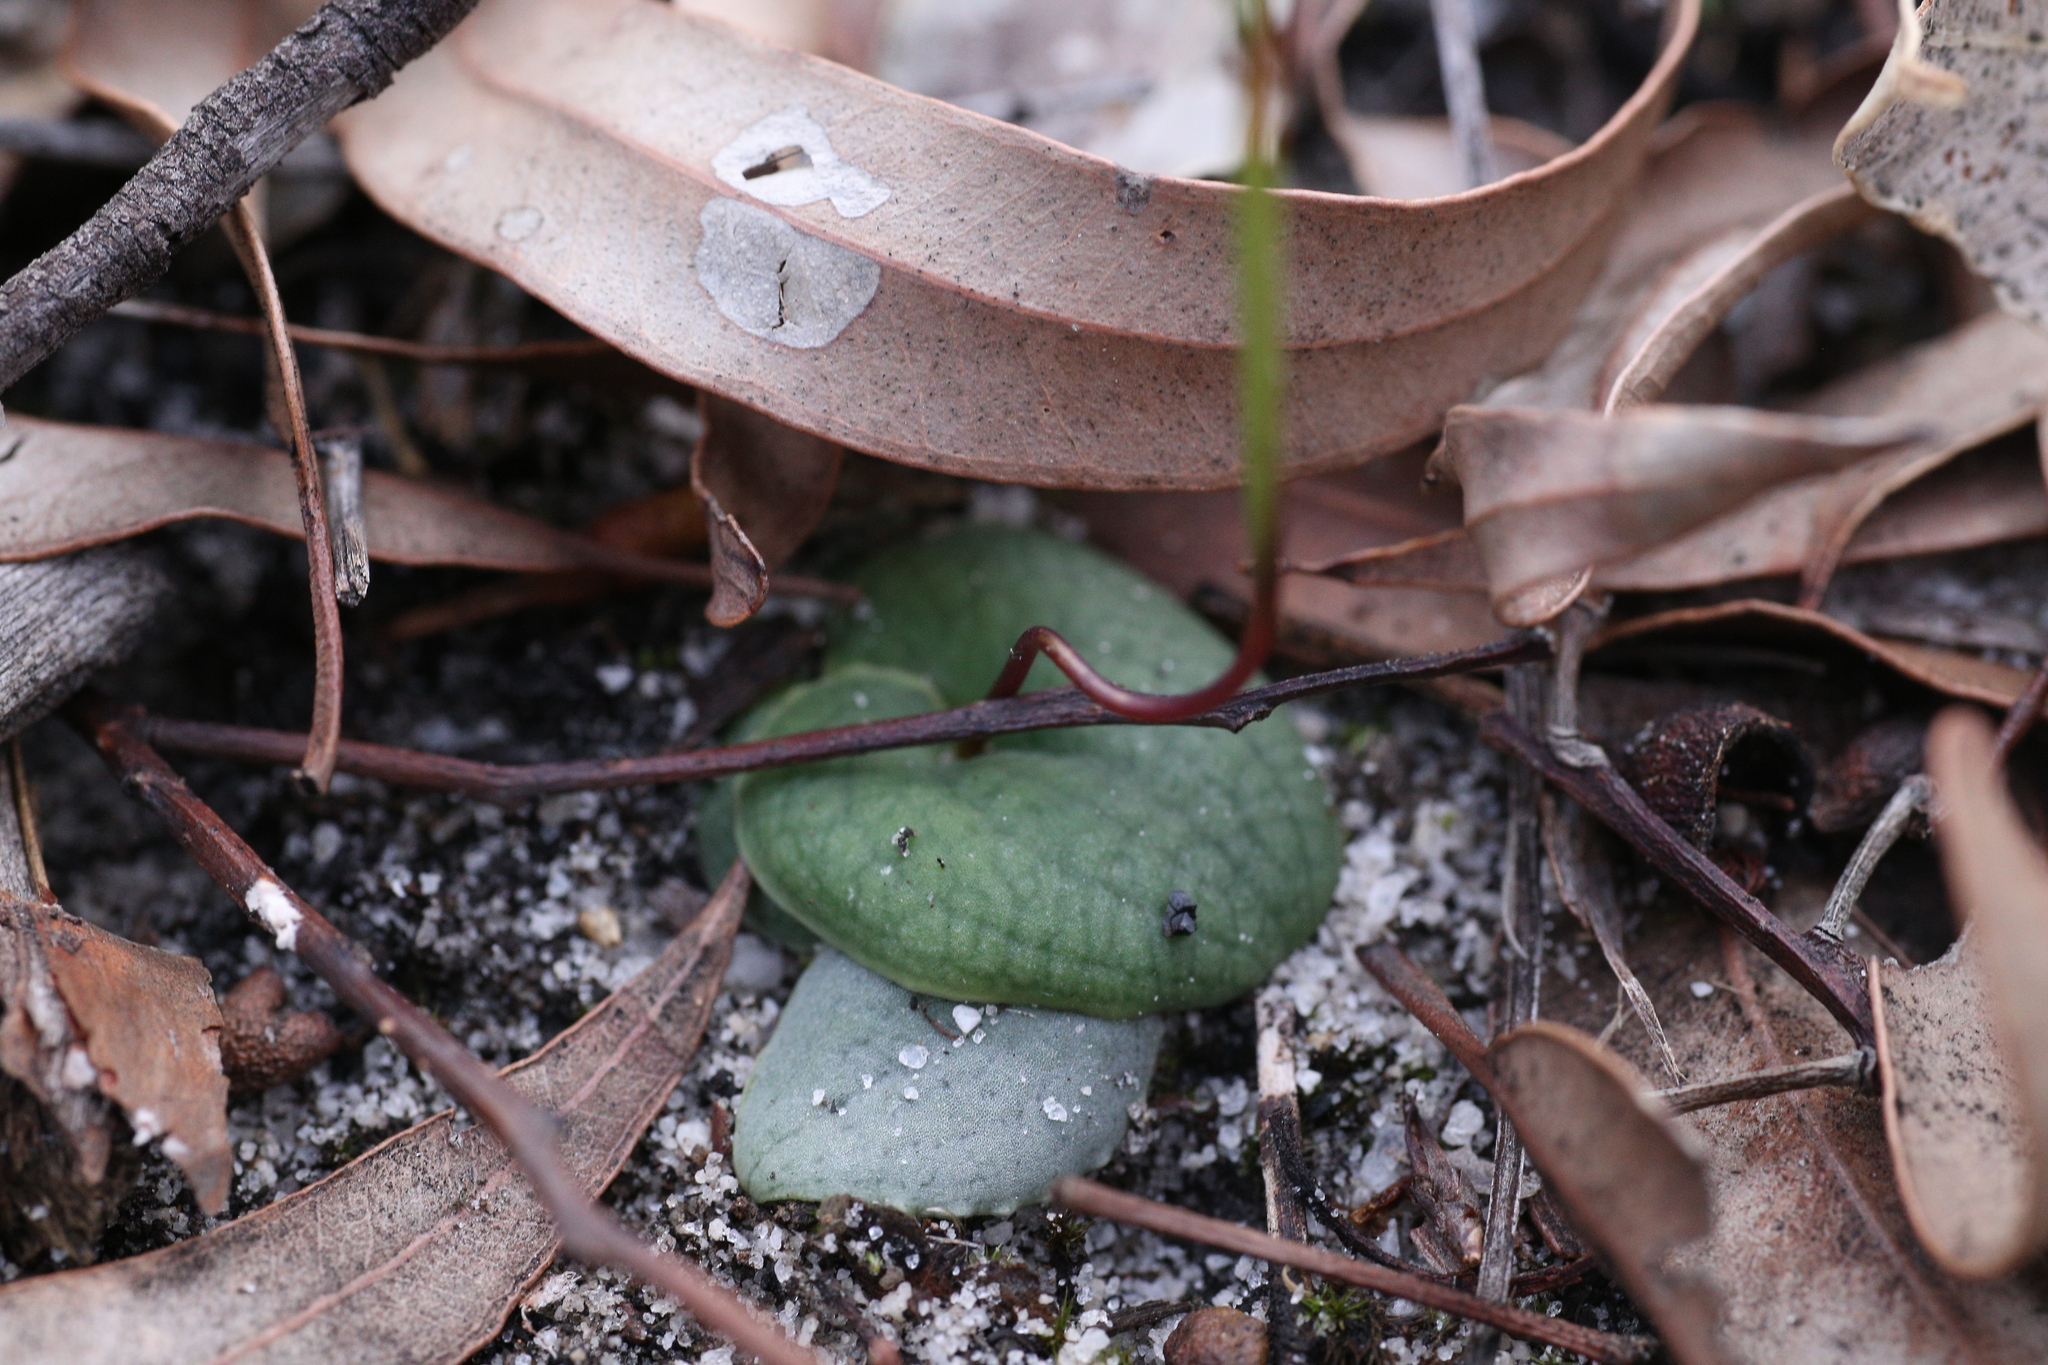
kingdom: Plantae
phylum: Tracheophyta
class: Liliopsida
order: Asparagales
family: Orchidaceae
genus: Drakaea
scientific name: Drakaea gracilis
